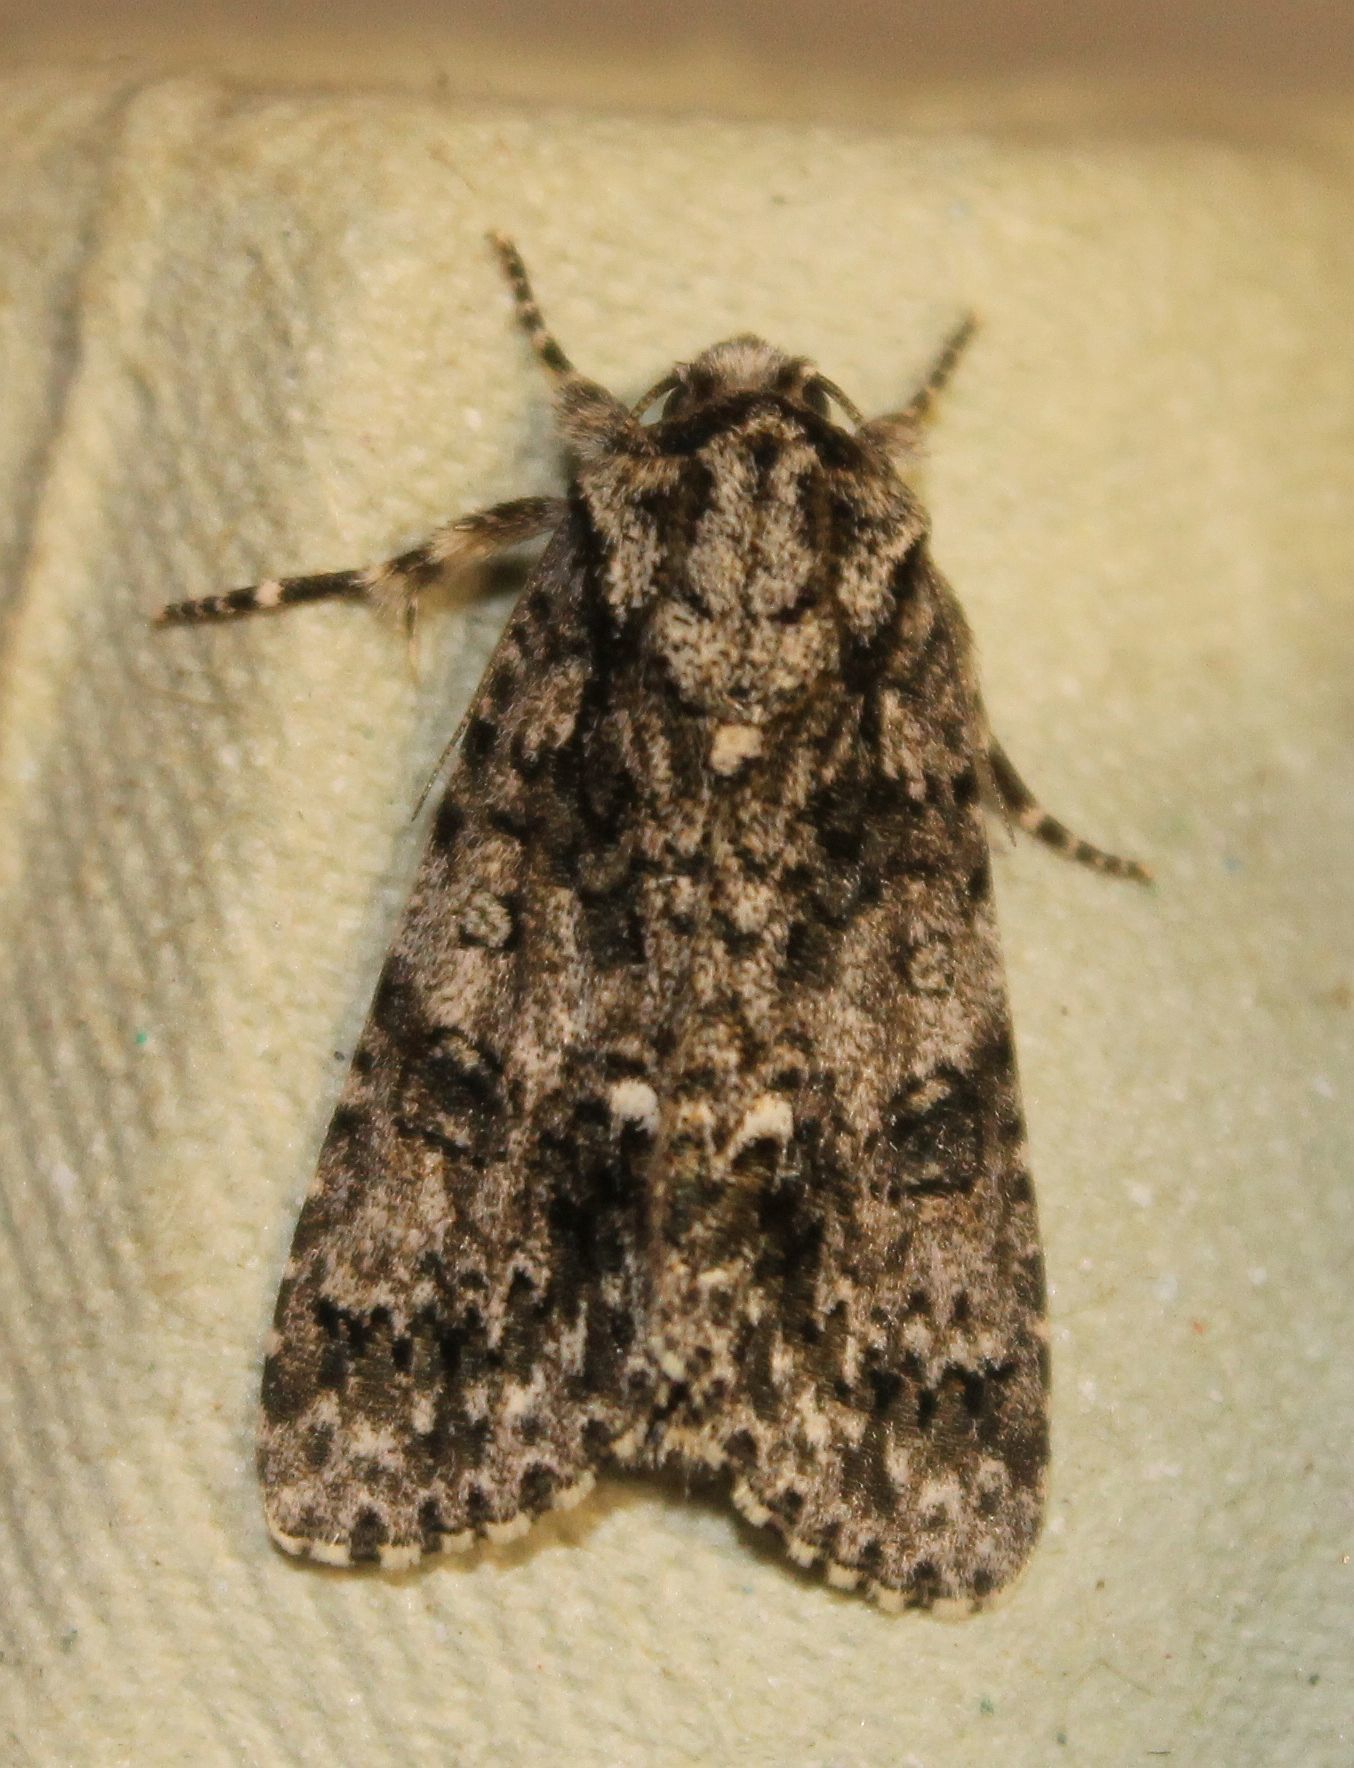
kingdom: Animalia
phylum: Arthropoda
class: Insecta
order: Lepidoptera
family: Noctuidae
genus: Acronicta
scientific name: Acronicta rumicis
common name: Knot grass
